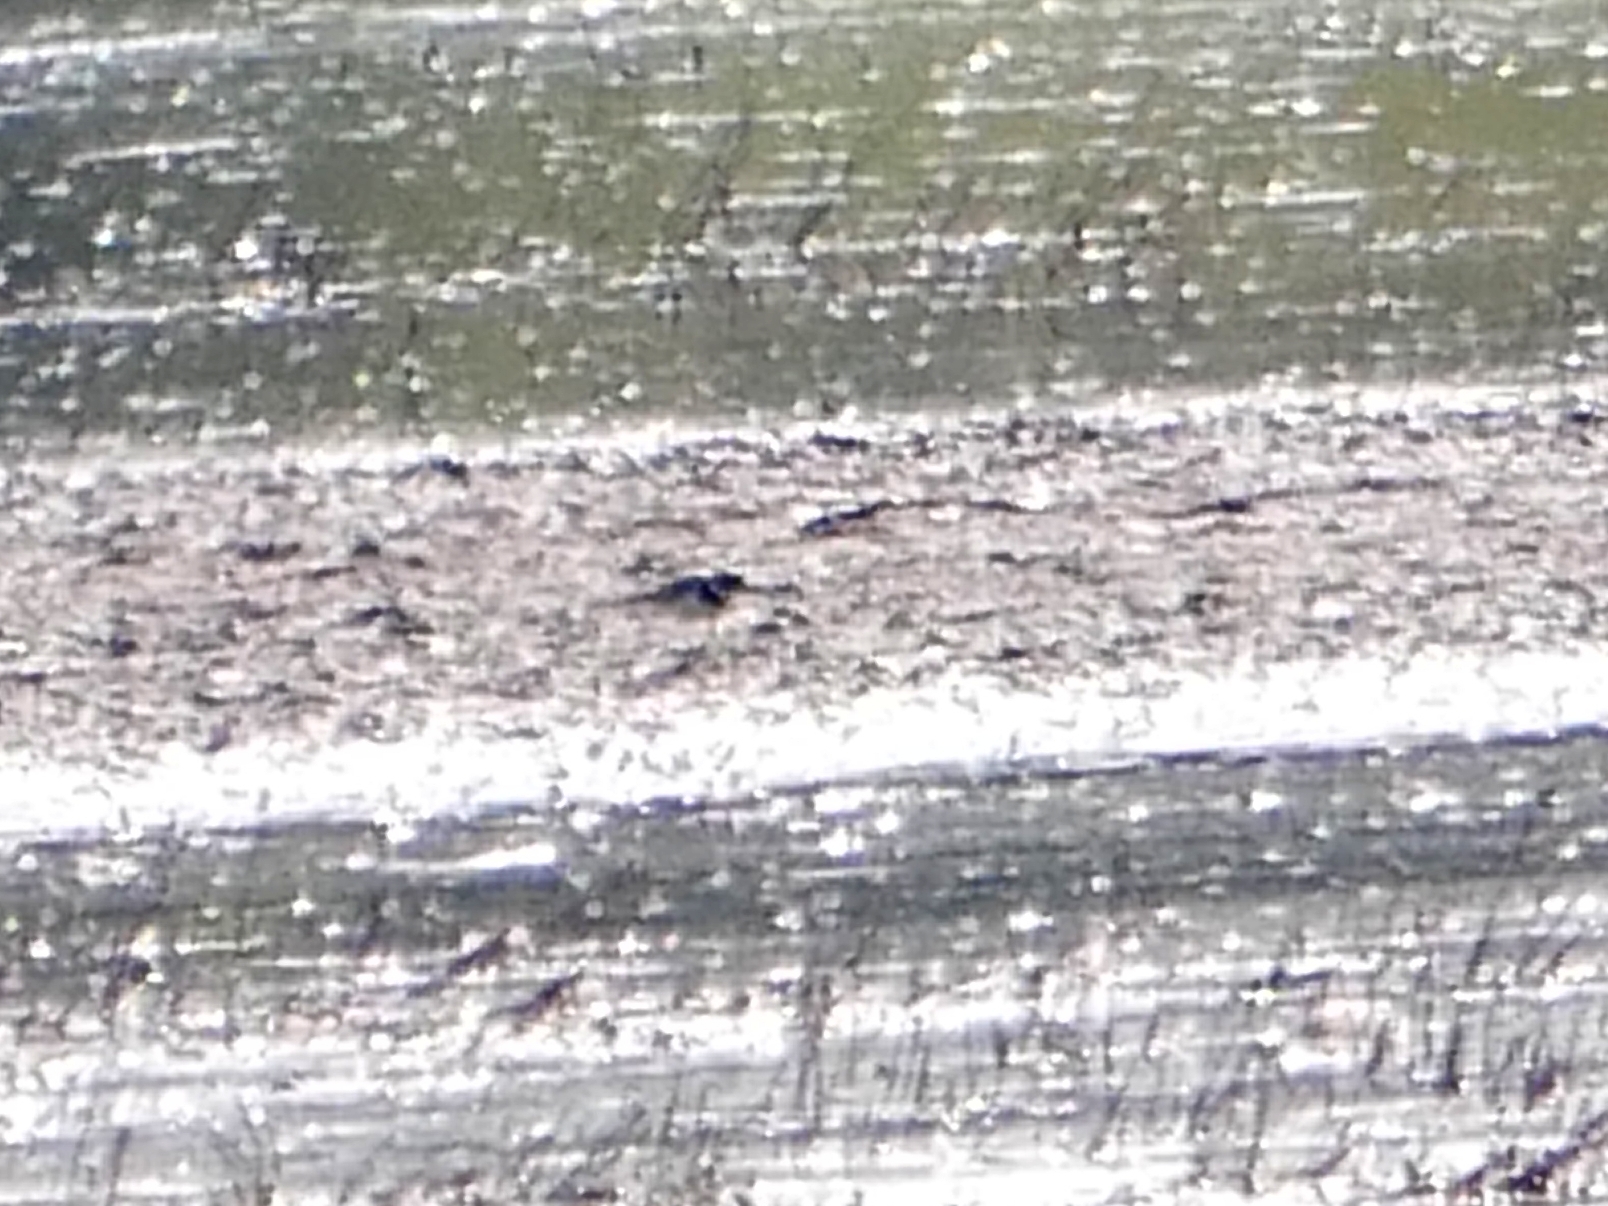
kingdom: Animalia
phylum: Chordata
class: Aves
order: Charadriiformes
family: Charadriidae
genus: Charadrius
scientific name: Charadrius dubius
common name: Little ringed plover
